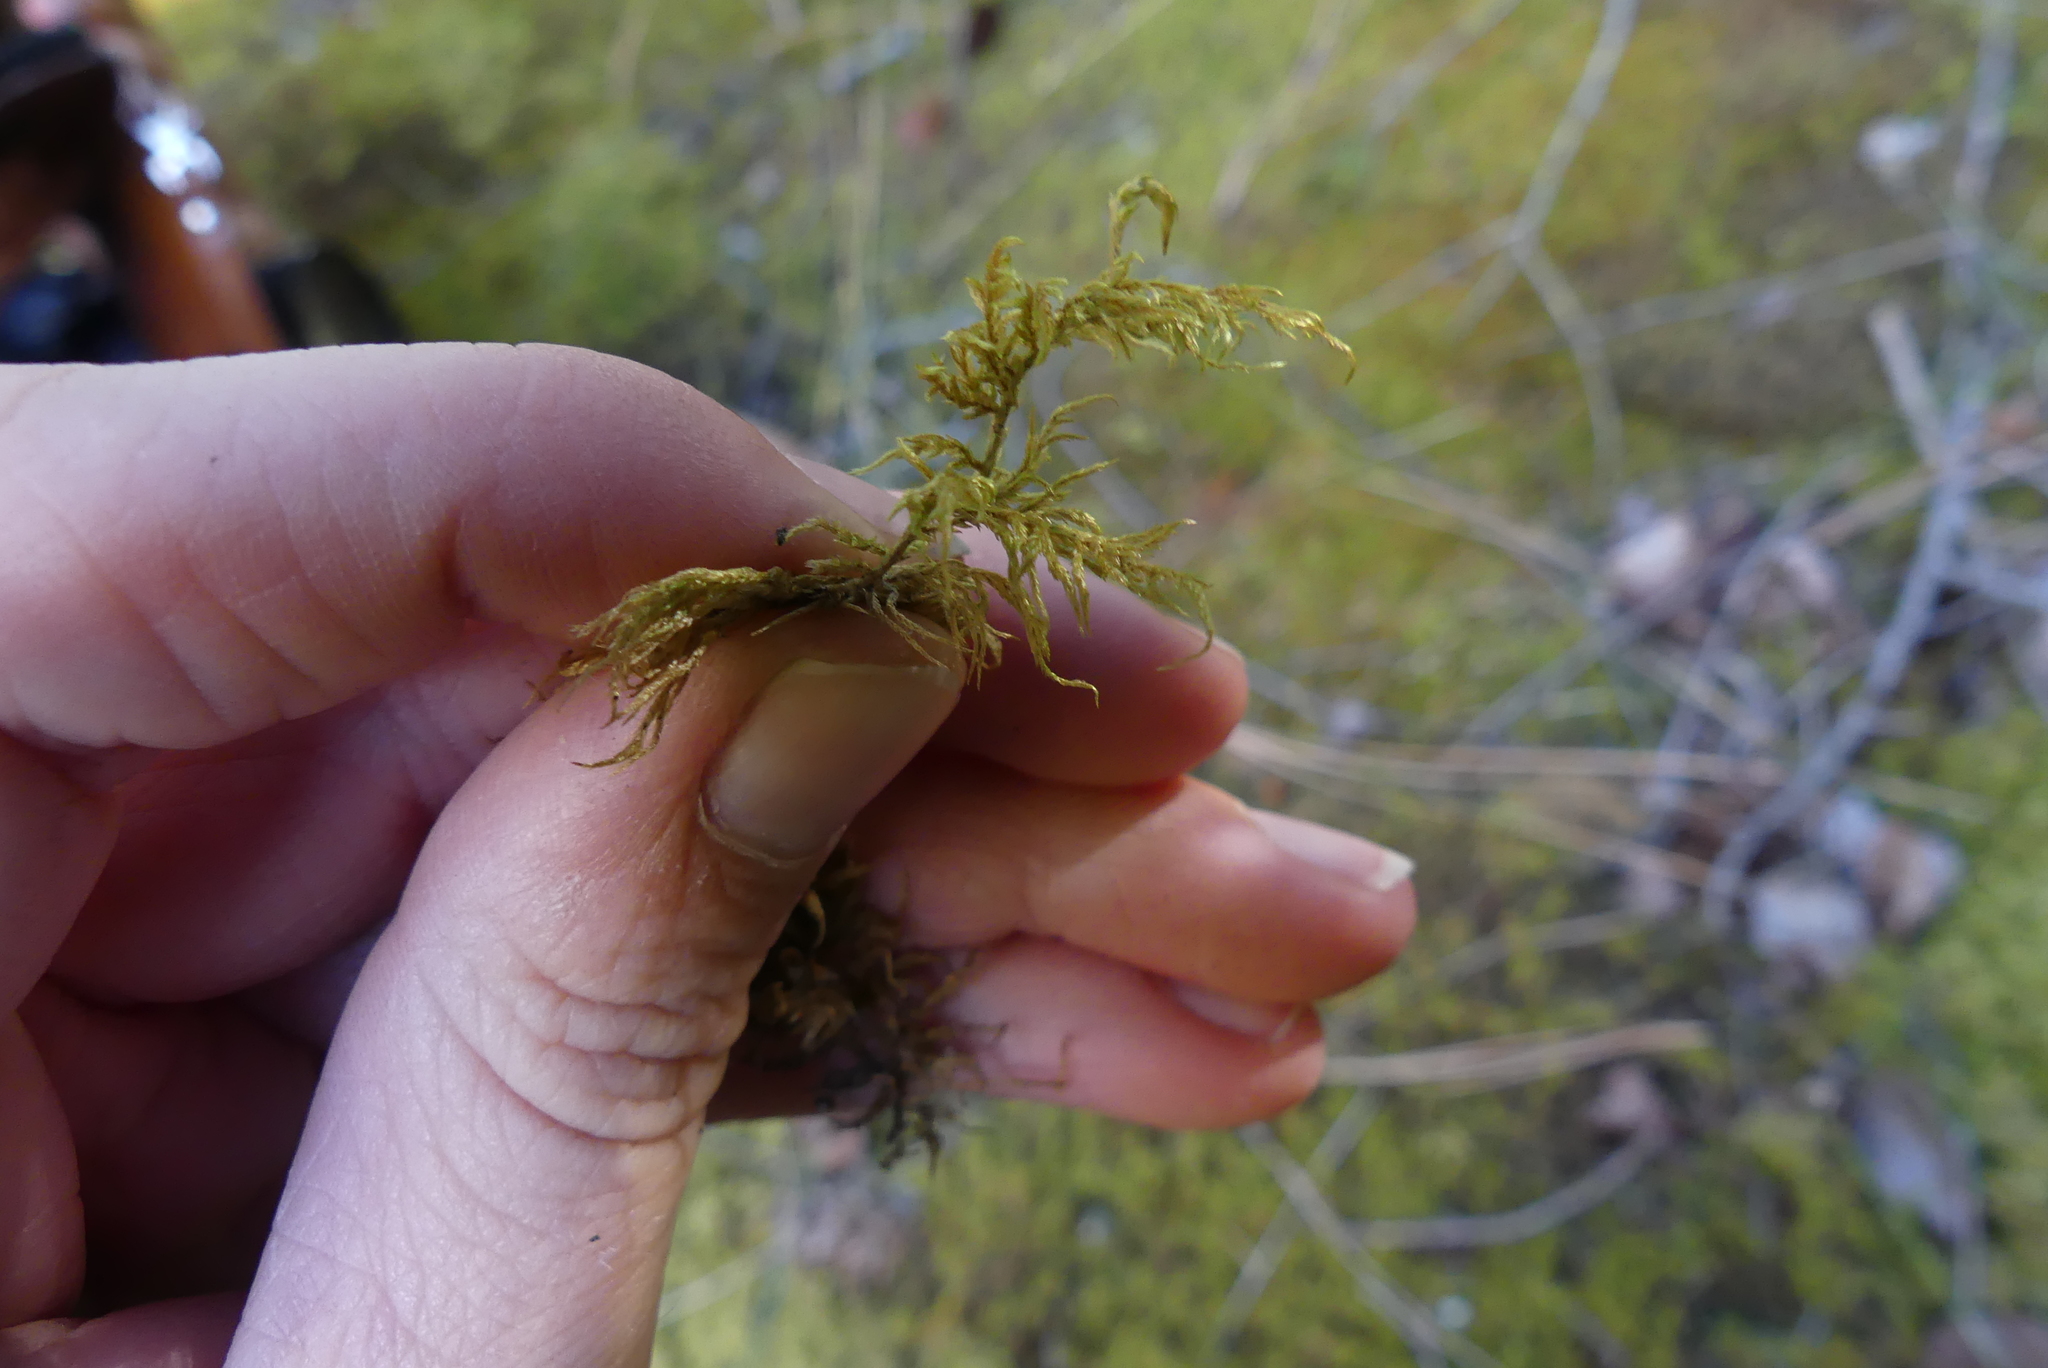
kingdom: Plantae
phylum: Bryophyta
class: Bryopsida
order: Hypnales
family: Hylocomiaceae
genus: Hylocomium
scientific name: Hylocomium splendens
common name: Stairstep moss
